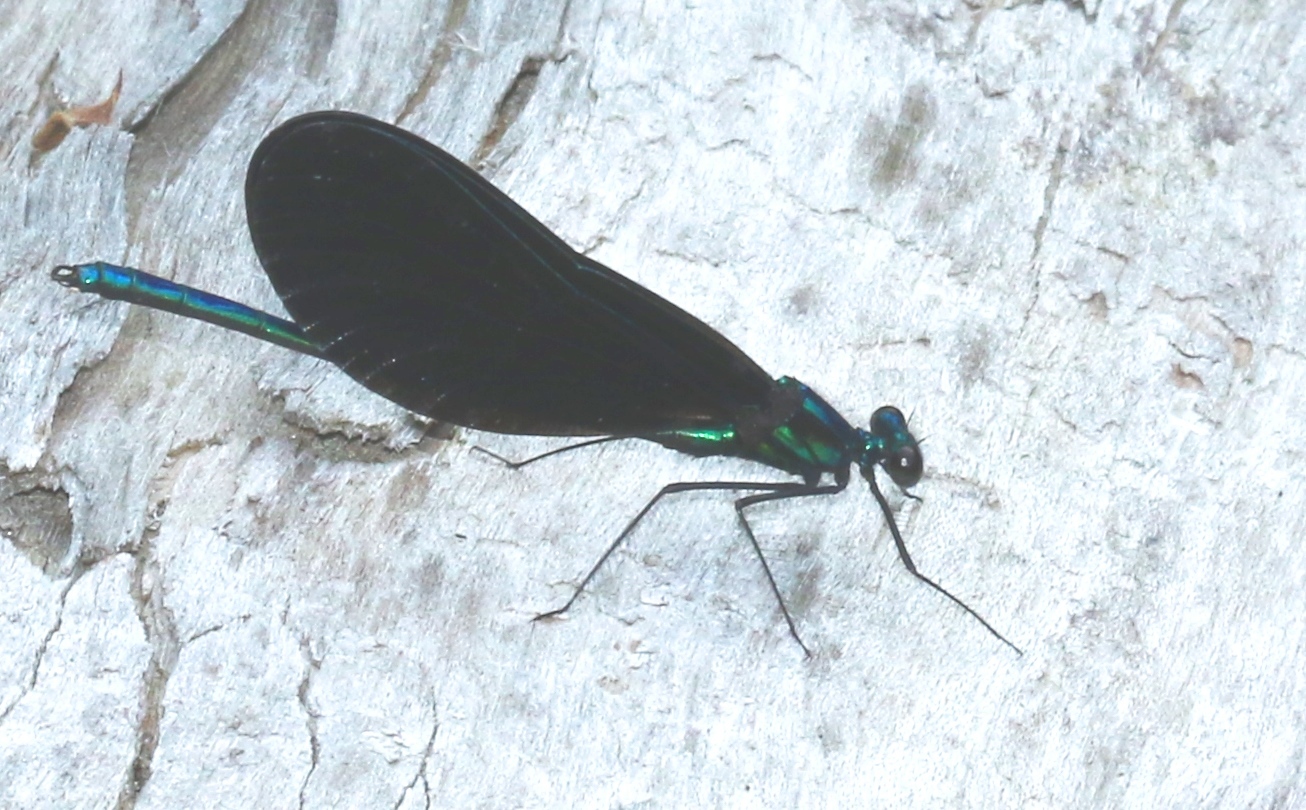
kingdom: Animalia
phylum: Arthropoda
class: Insecta
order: Odonata
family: Calopterygidae
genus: Calopteryx
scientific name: Calopteryx maculata
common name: Ebony jewelwing
